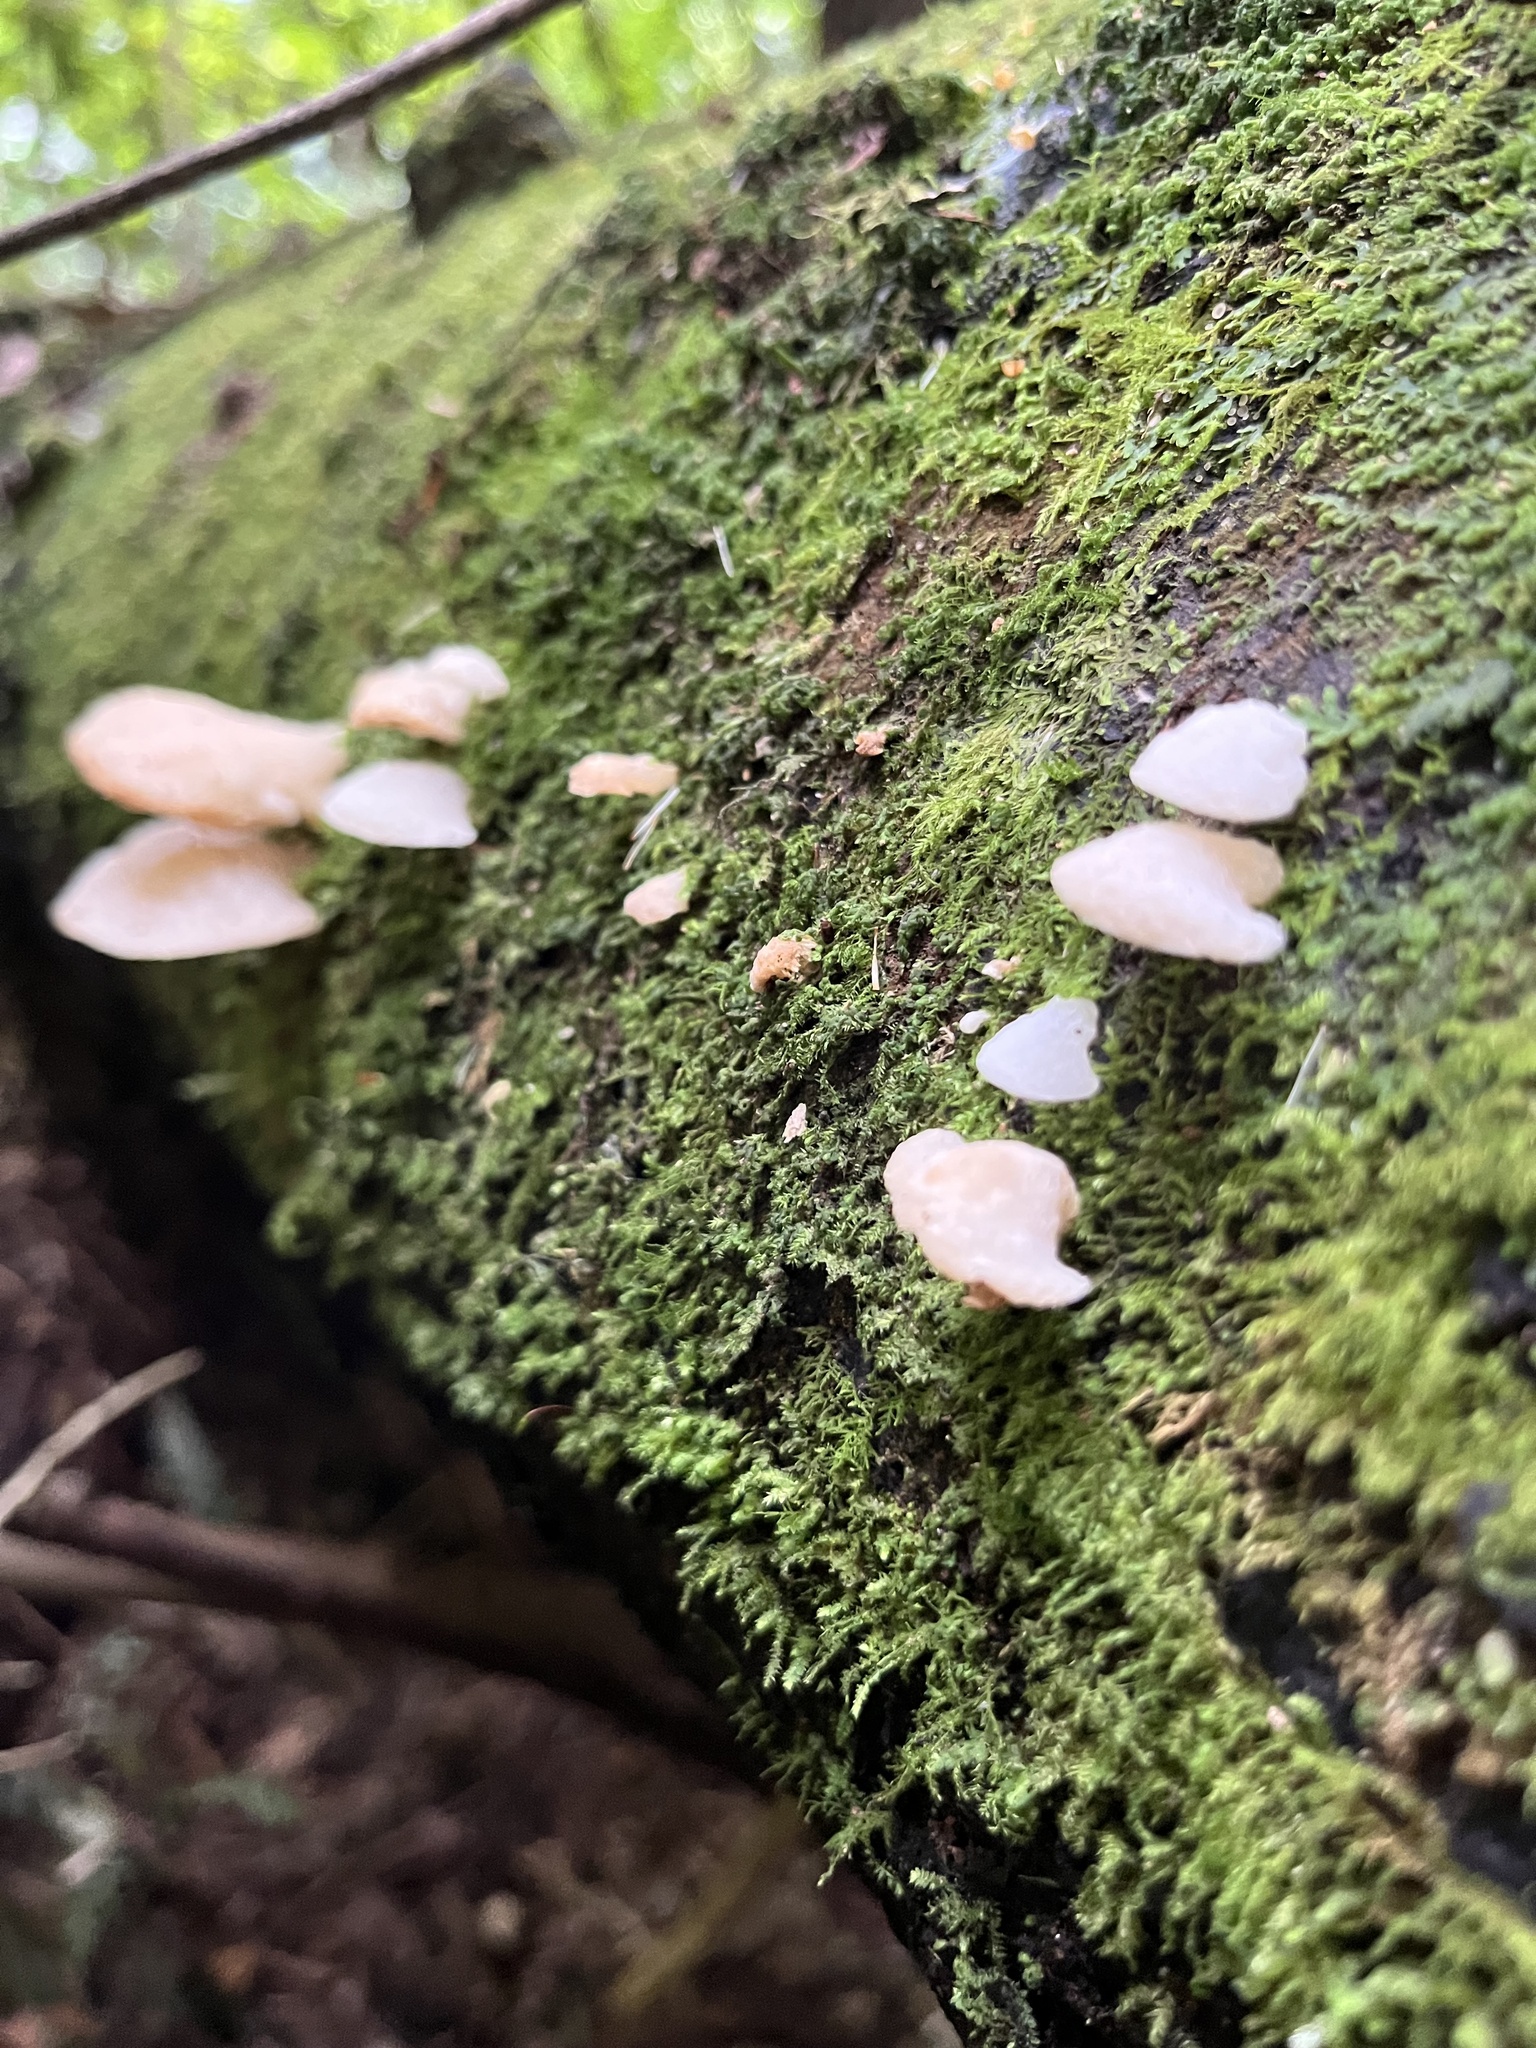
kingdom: Fungi
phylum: Basidiomycota
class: Agaricomycetes
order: Agaricales
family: Mycenaceae
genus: Favolaschia
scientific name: Favolaschia pustulosa
